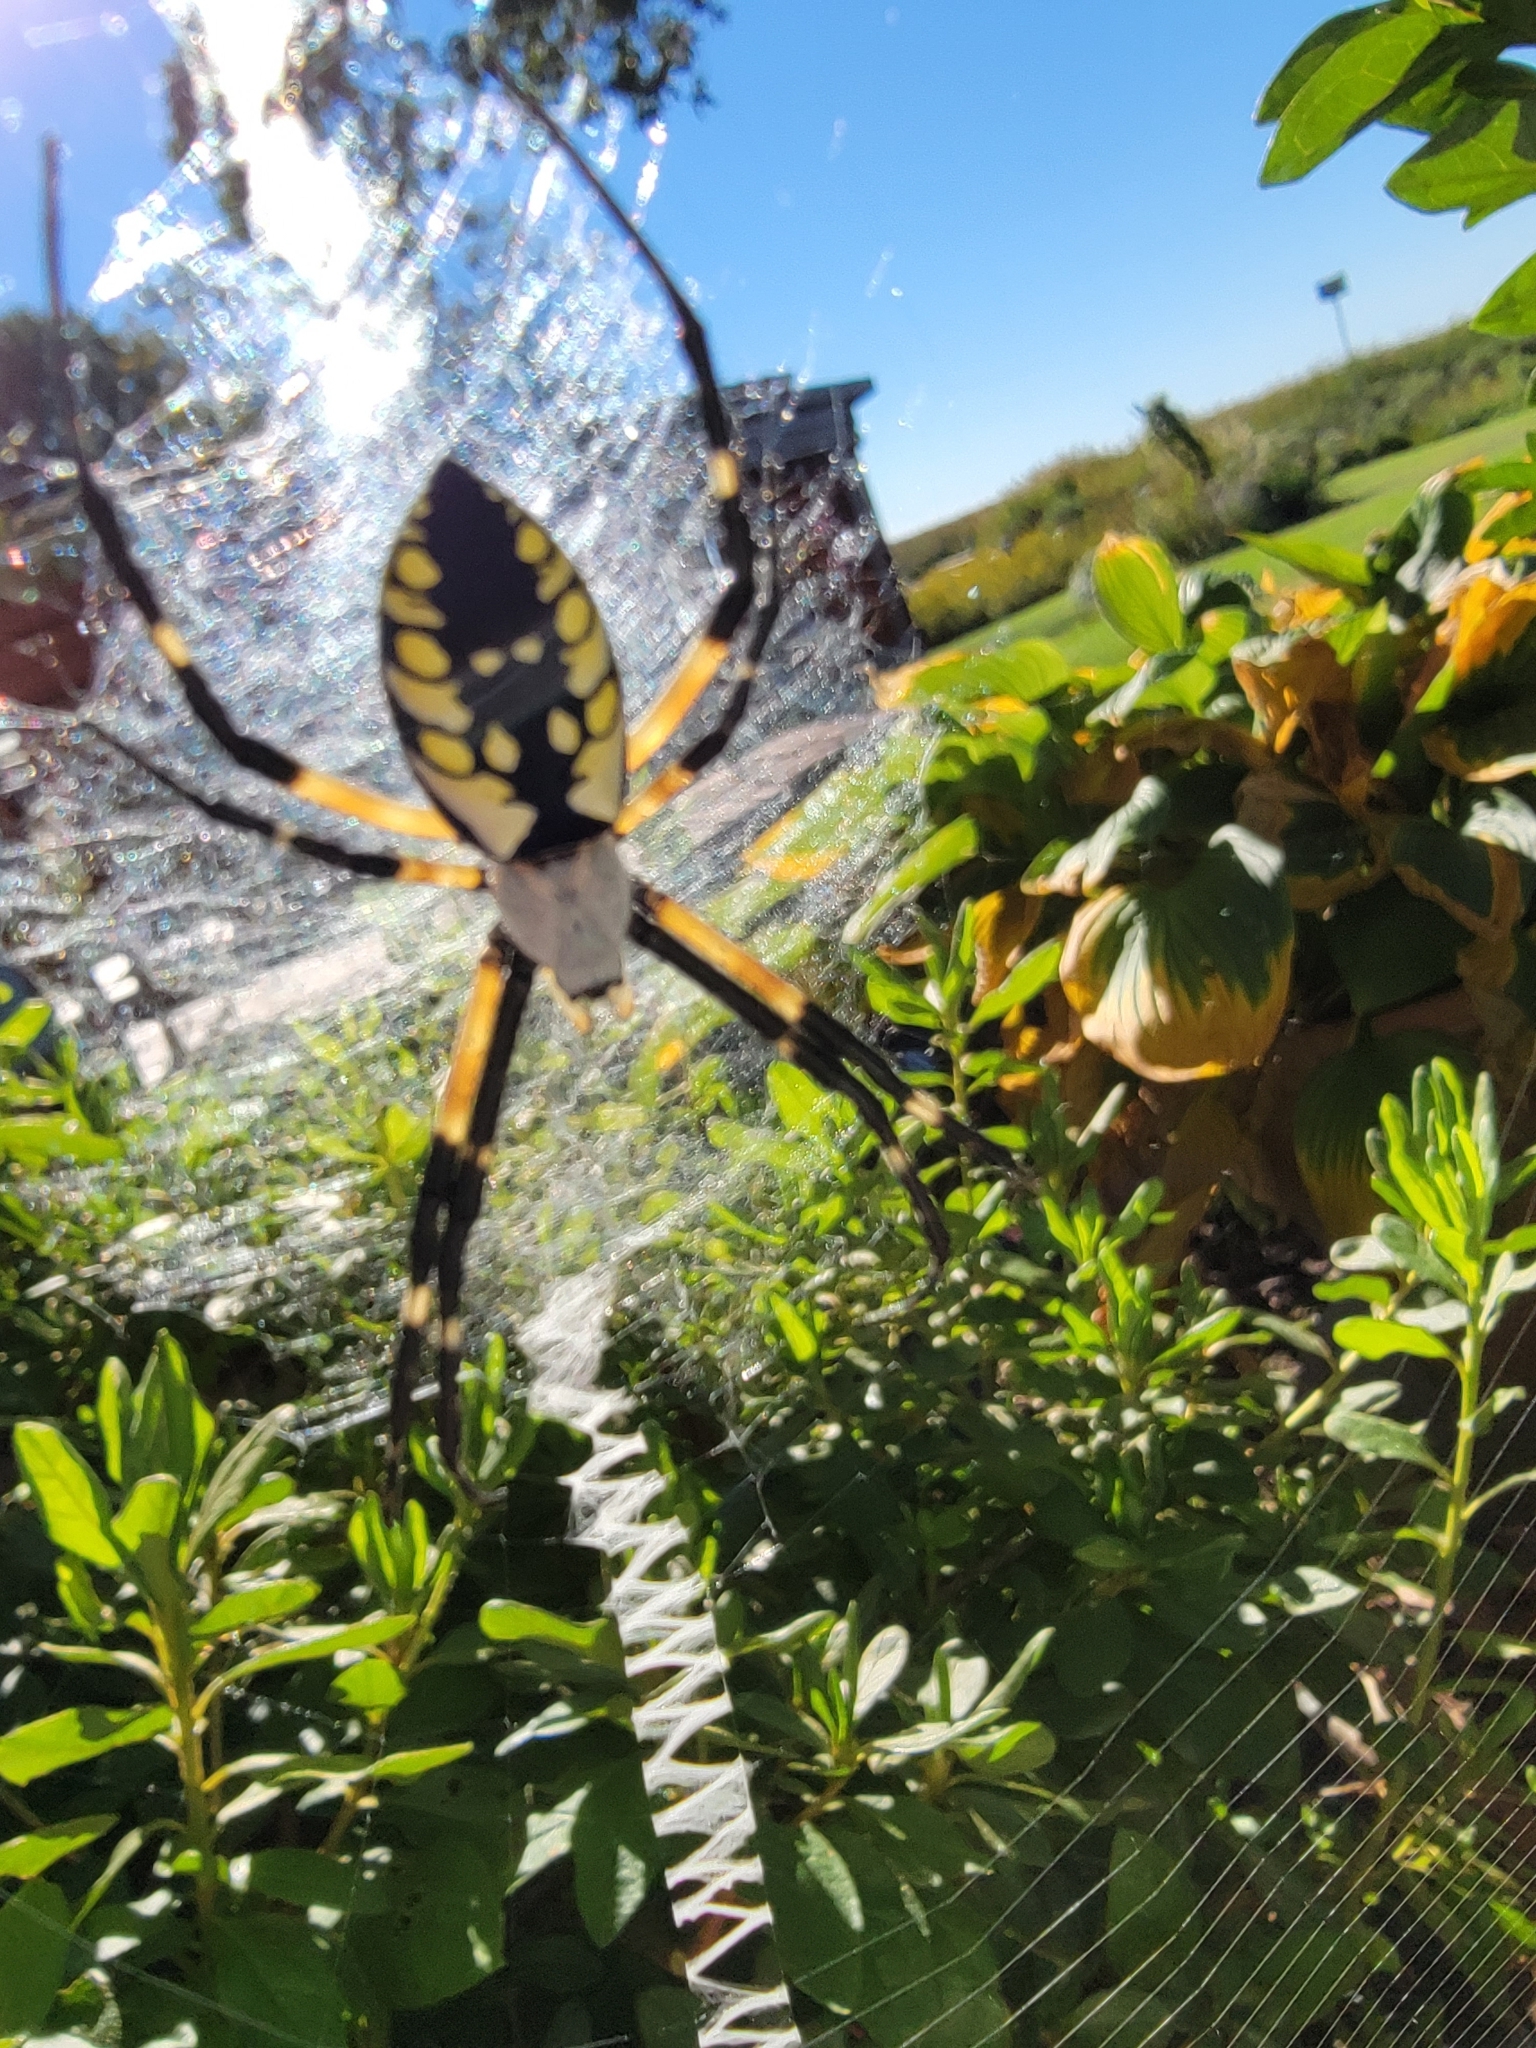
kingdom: Animalia
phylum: Arthropoda
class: Arachnida
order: Araneae
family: Araneidae
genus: Argiope
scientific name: Argiope aurantia
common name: Orb weavers
